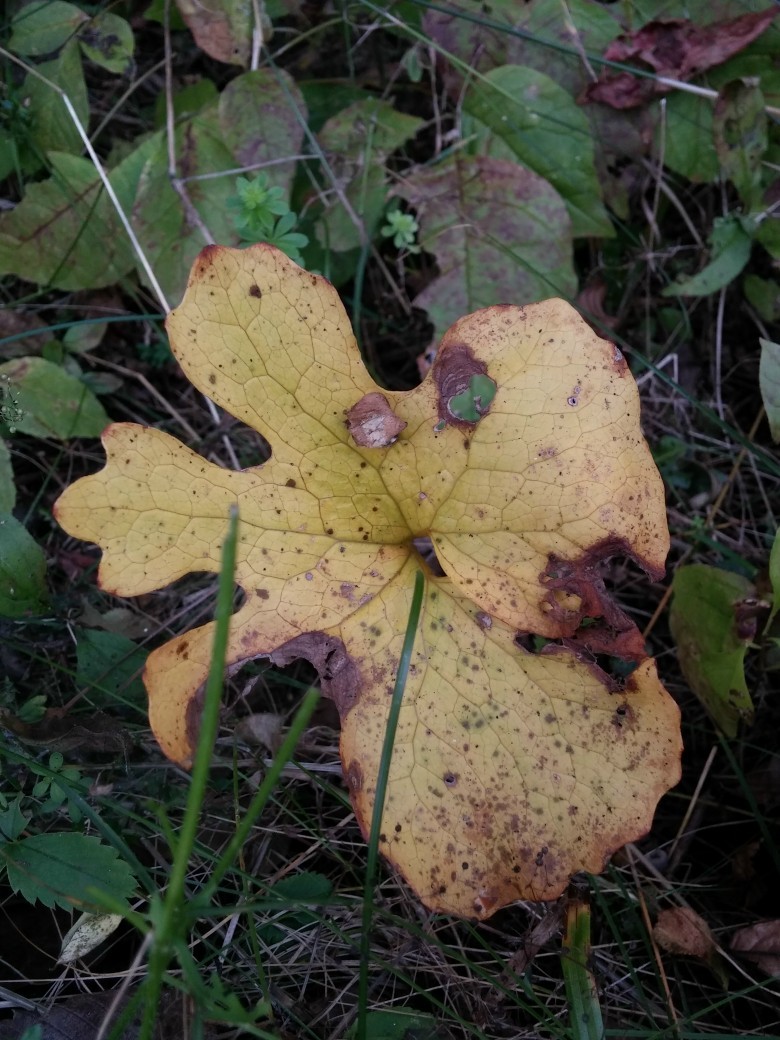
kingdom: Plantae
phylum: Tracheophyta
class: Magnoliopsida
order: Ranunculales
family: Papaveraceae
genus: Sanguinaria
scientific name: Sanguinaria canadensis
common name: Bloodroot
